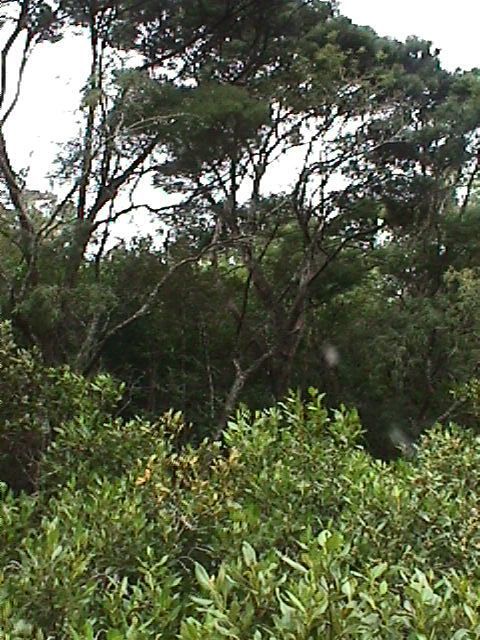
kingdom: Plantae
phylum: Tracheophyta
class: Magnoliopsida
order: Lamiales
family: Acanthaceae
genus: Avicennia
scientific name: Avicennia marina
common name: Gray mangrove
